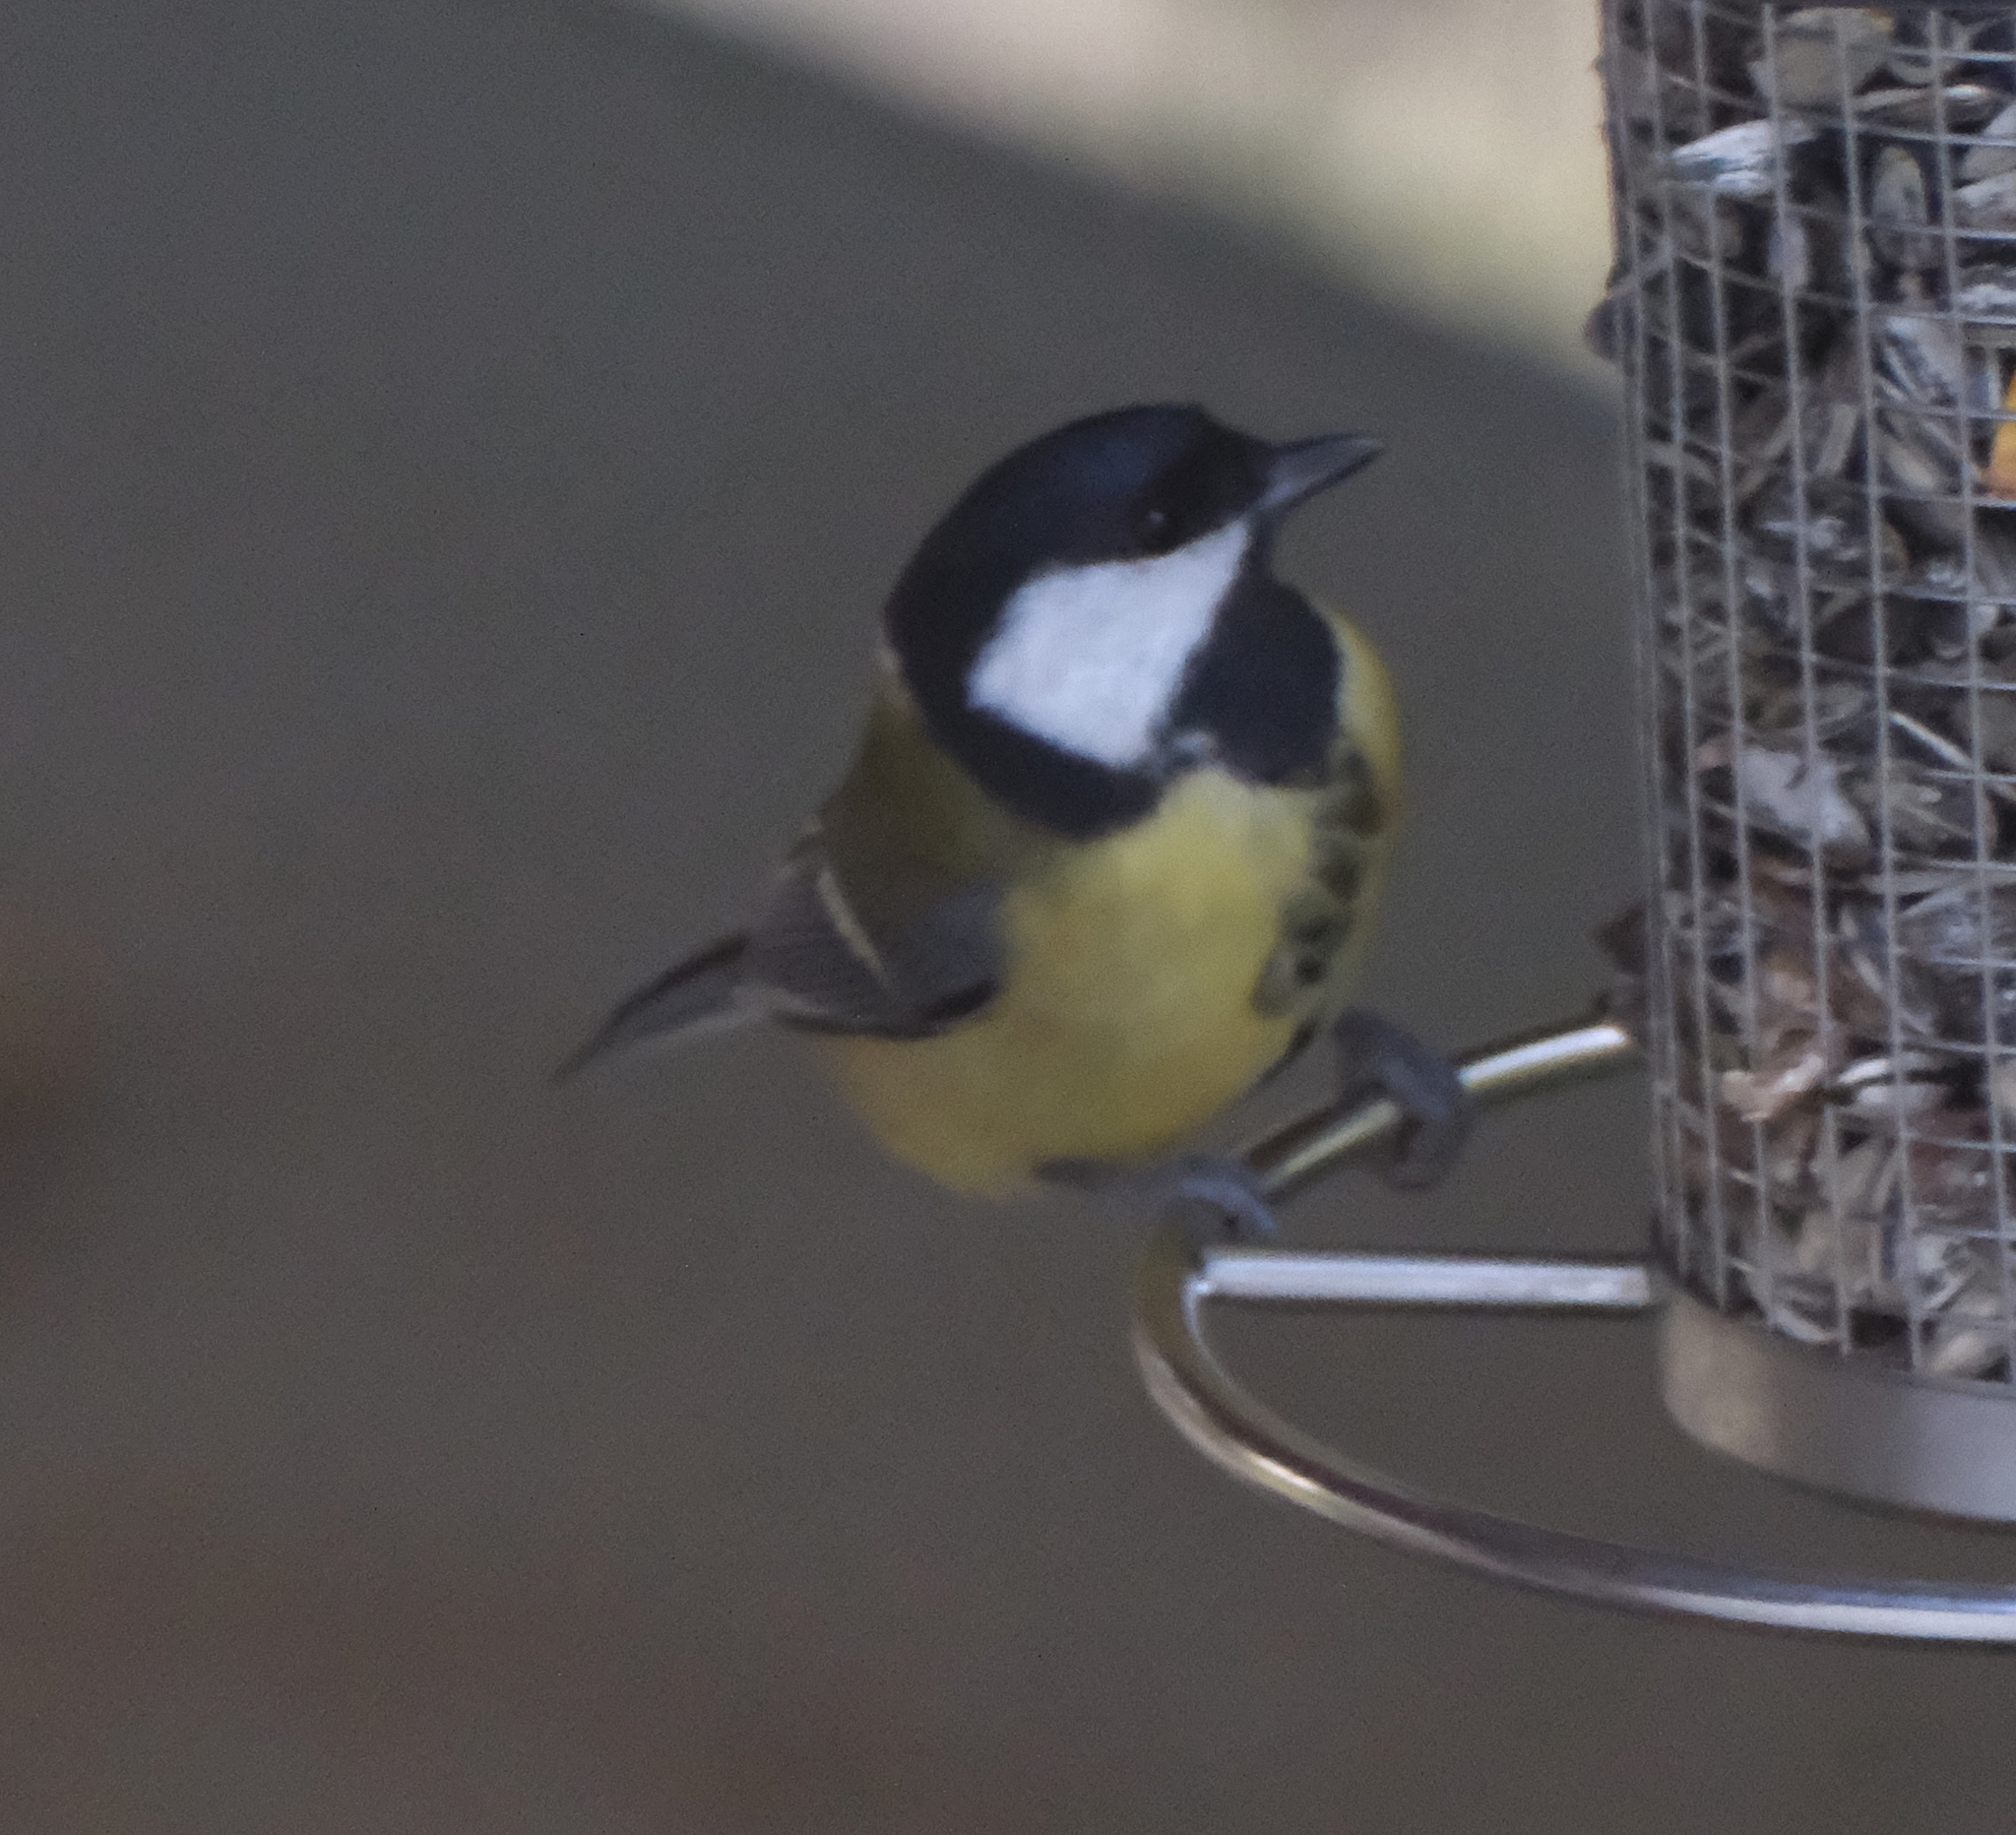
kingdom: Animalia
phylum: Chordata
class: Aves
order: Passeriformes
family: Paridae
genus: Parus
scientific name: Parus major
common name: Great tit
